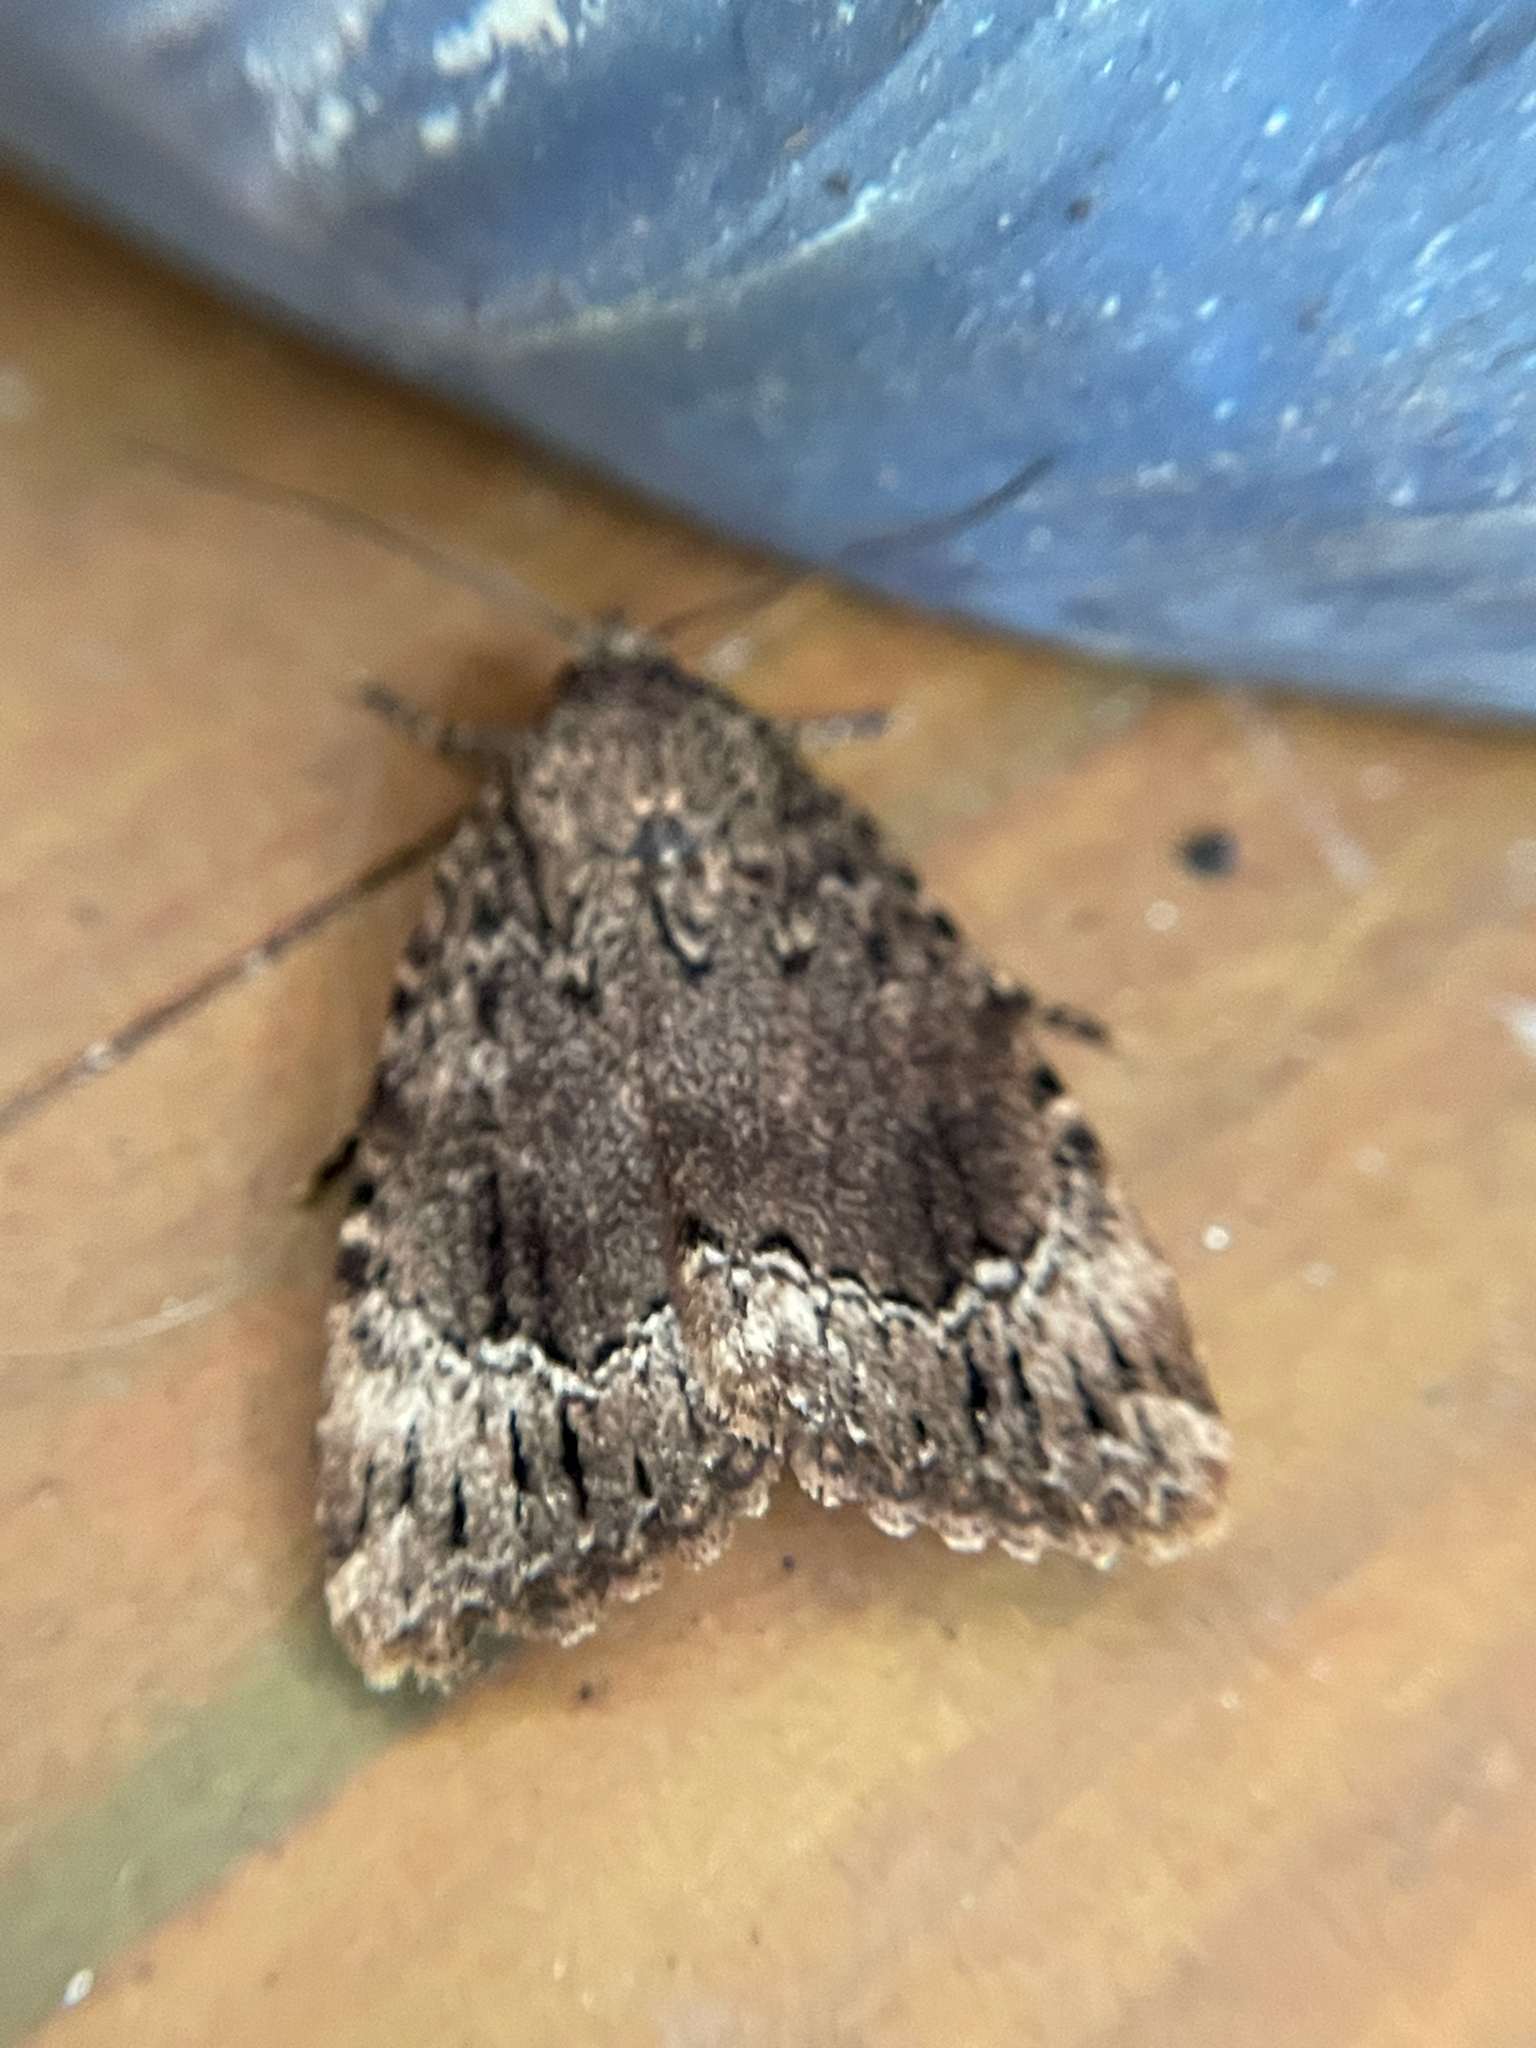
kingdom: Animalia
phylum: Arthropoda
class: Insecta
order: Lepidoptera
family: Noctuidae
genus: Amphipyra
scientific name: Amphipyra pyramidoides
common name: American copper underwing
